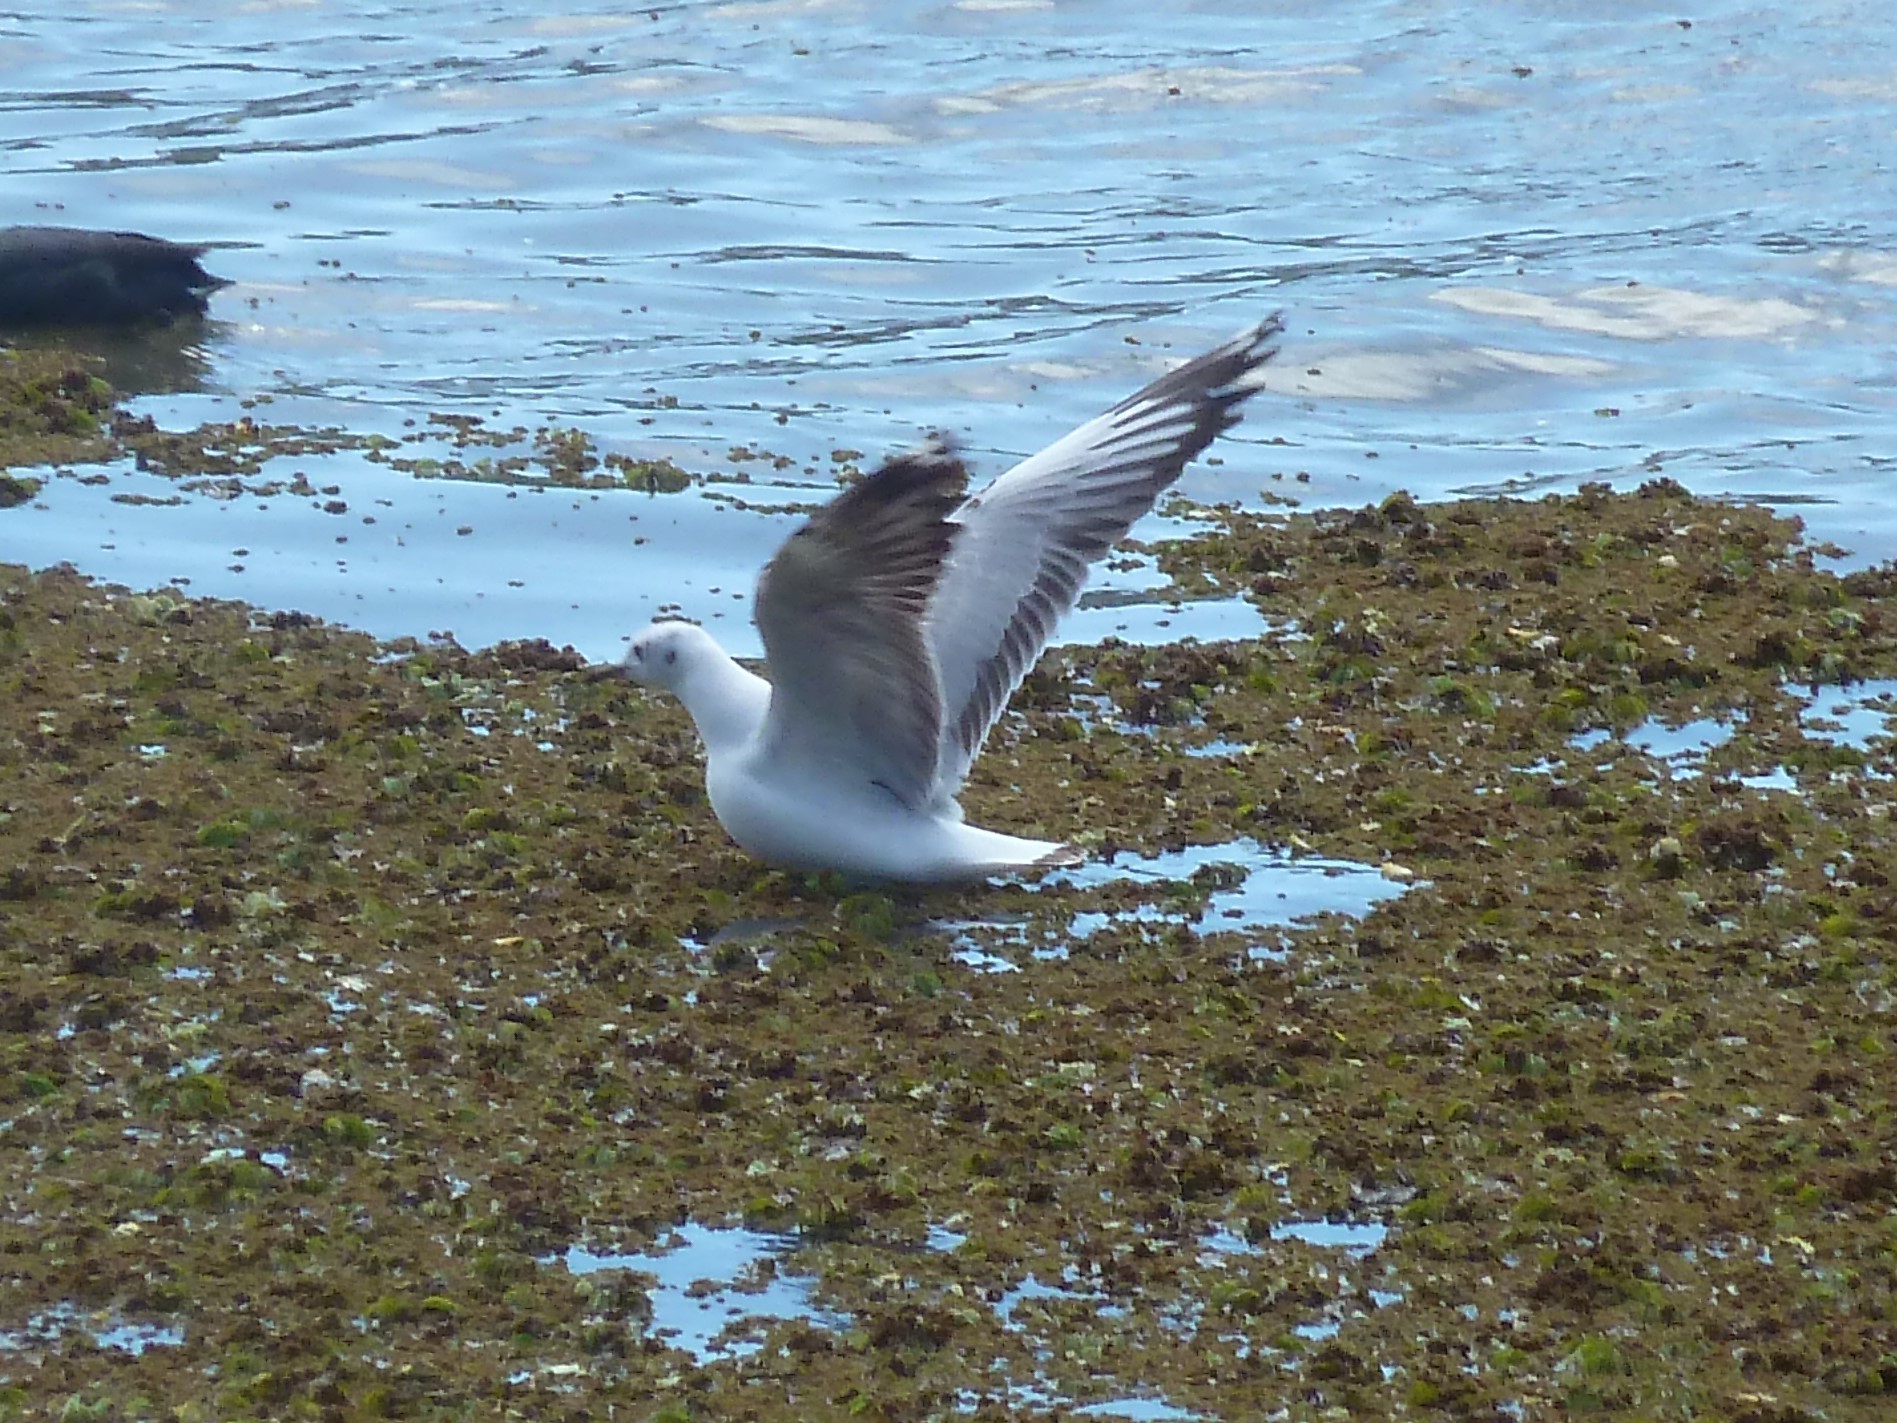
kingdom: Animalia
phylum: Chordata
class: Aves
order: Charadriiformes
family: Laridae
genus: Chroicocephalus
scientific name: Chroicocephalus maculipennis
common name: Brown-hooded gull
